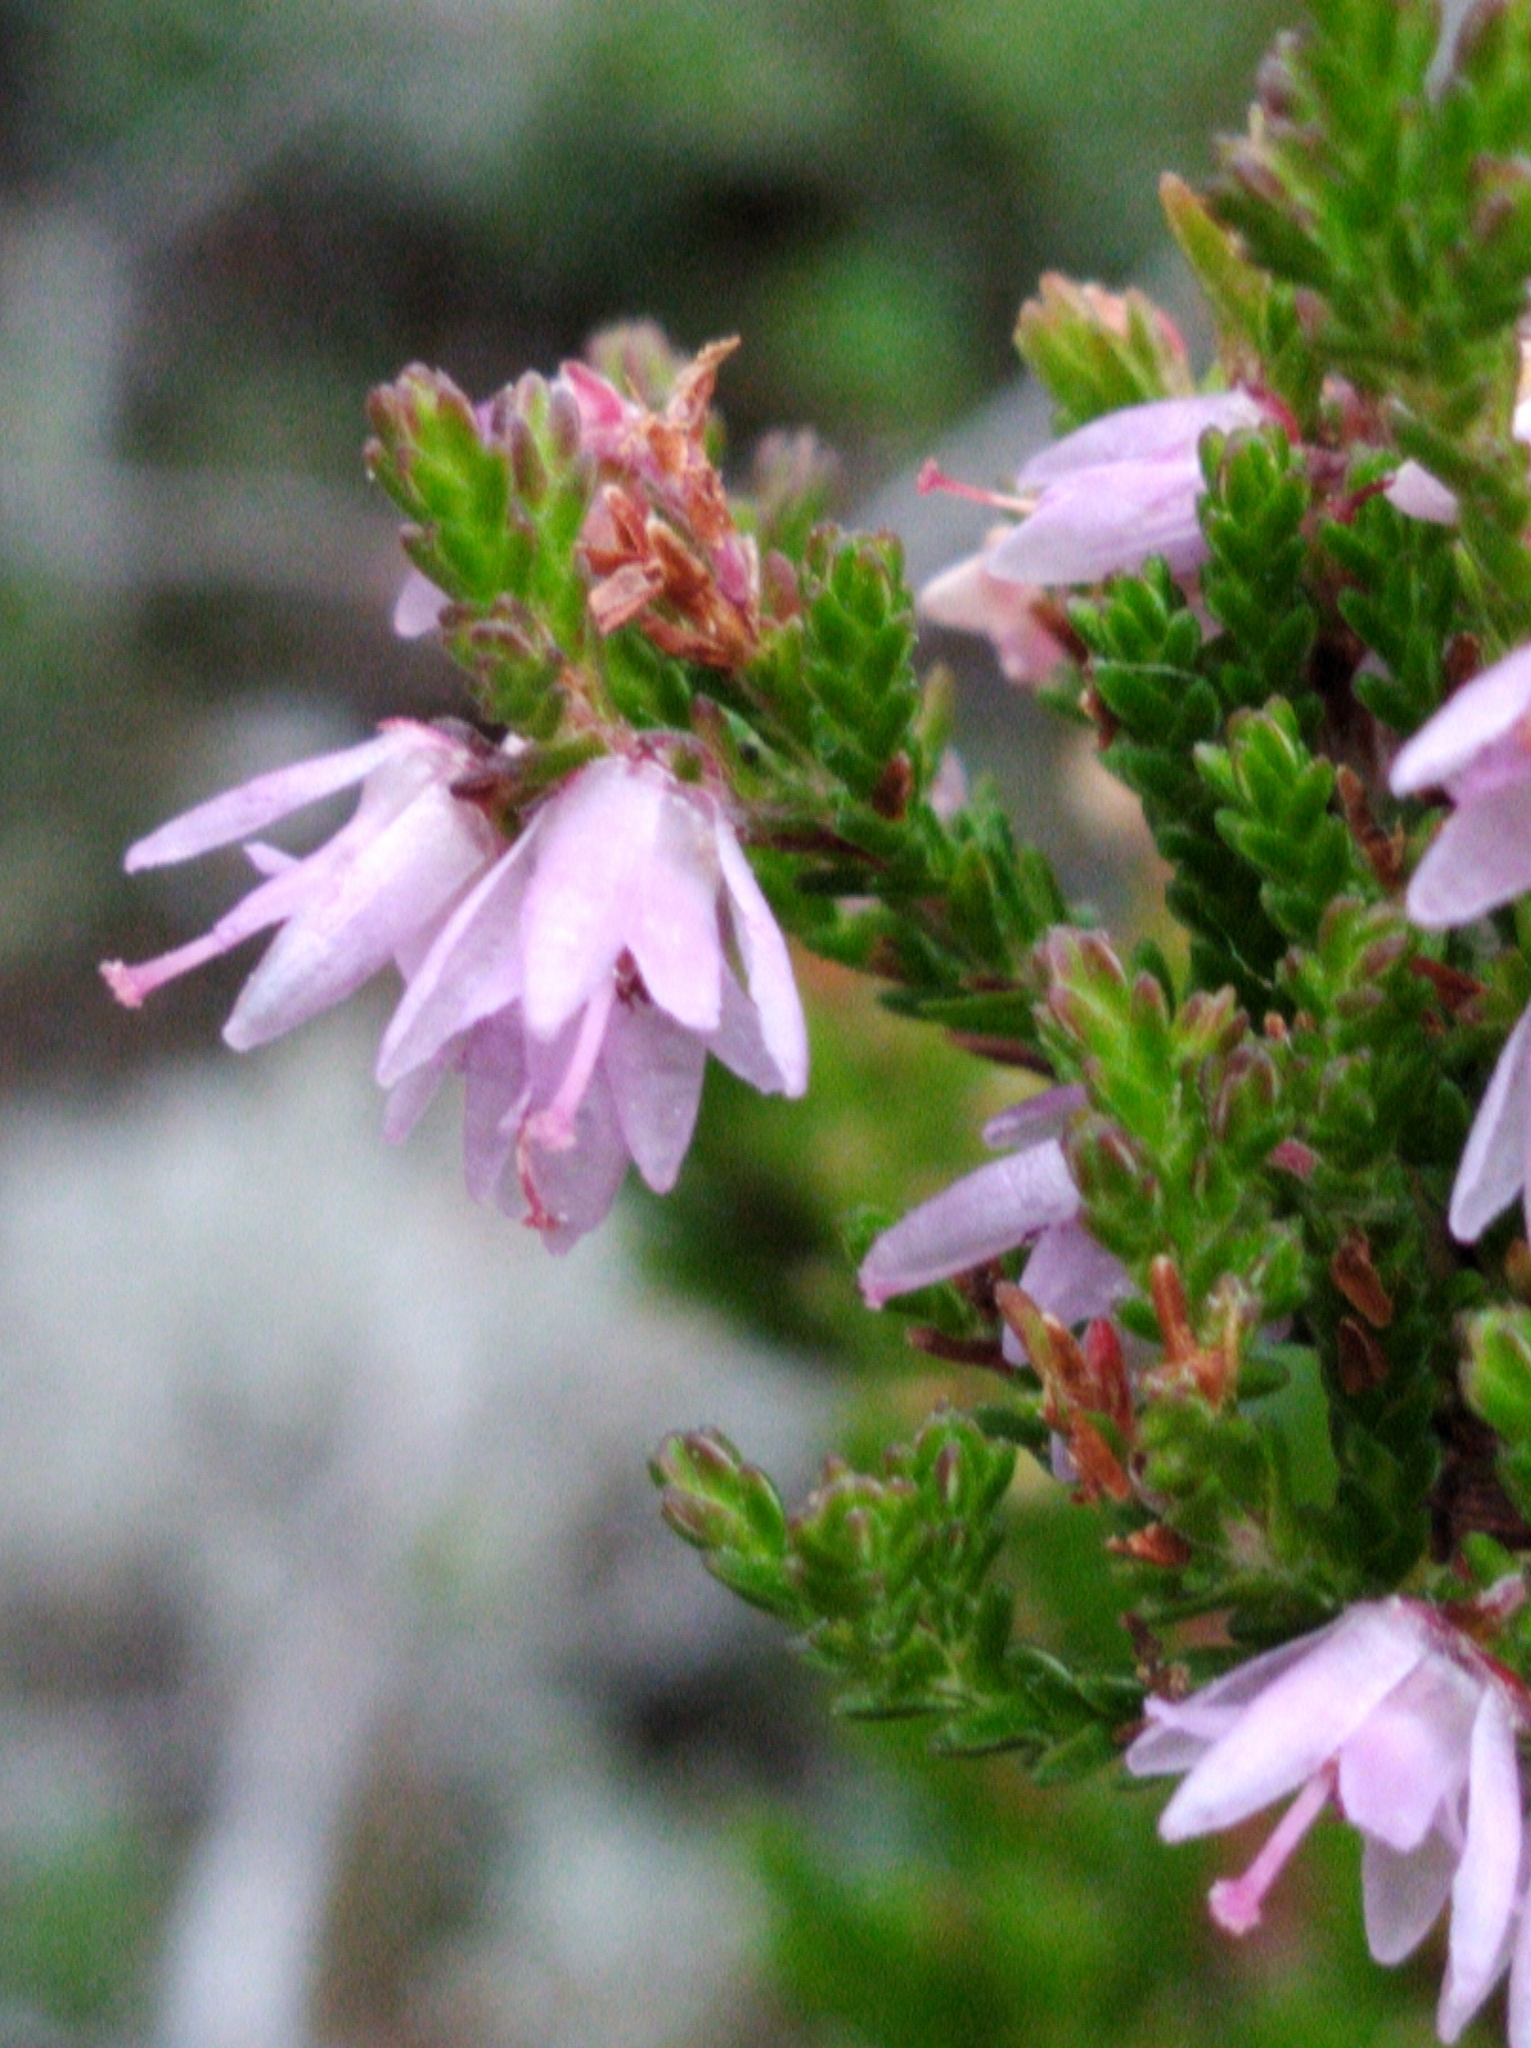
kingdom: Plantae
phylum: Tracheophyta
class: Magnoliopsida
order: Ericales
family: Ericaceae
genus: Calluna
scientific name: Calluna vulgaris
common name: Heather
